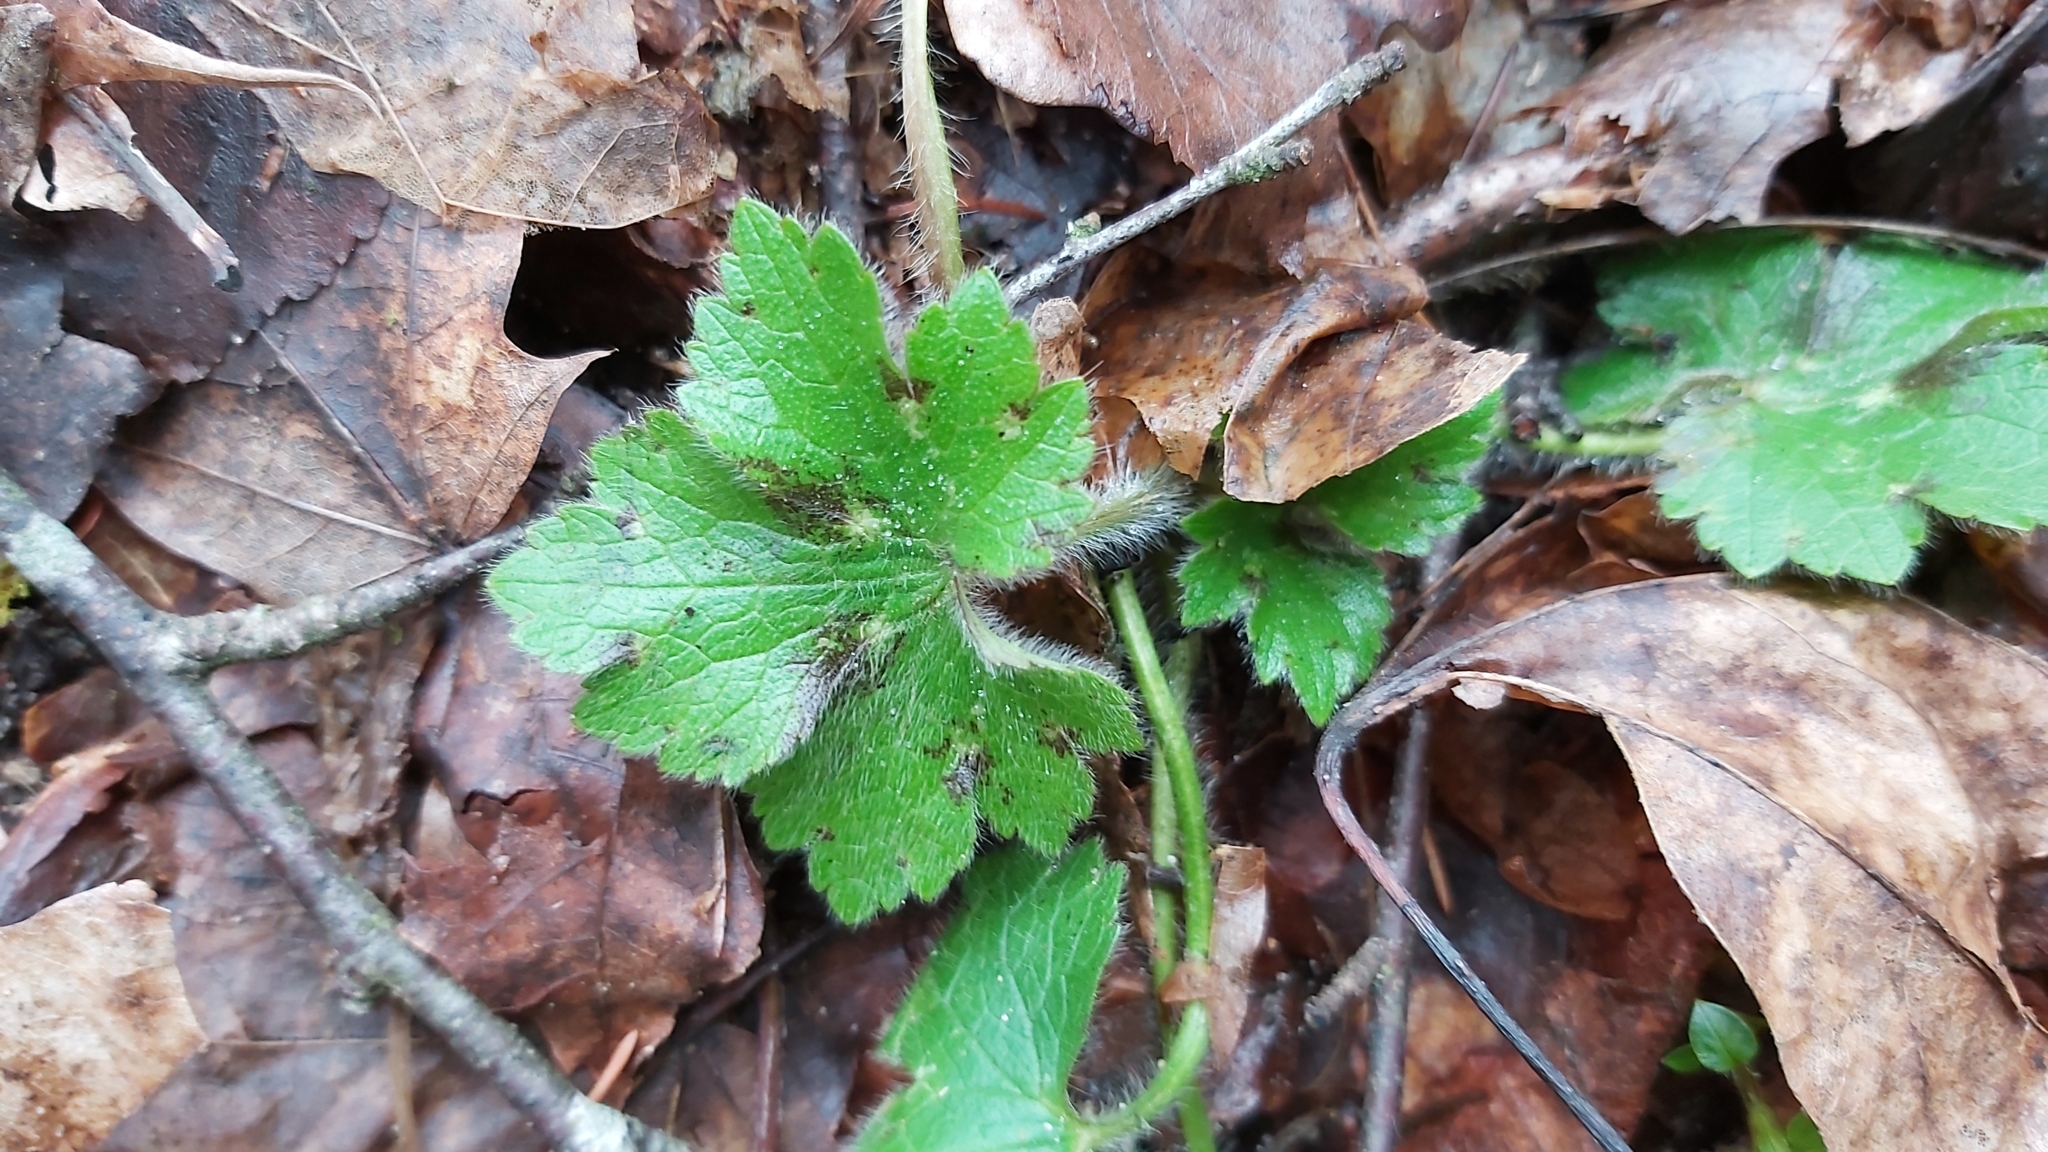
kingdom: Plantae
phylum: Tracheophyta
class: Magnoliopsida
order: Ranunculales
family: Ranunculaceae
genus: Ranunculus
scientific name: Ranunculus lanuginosus
